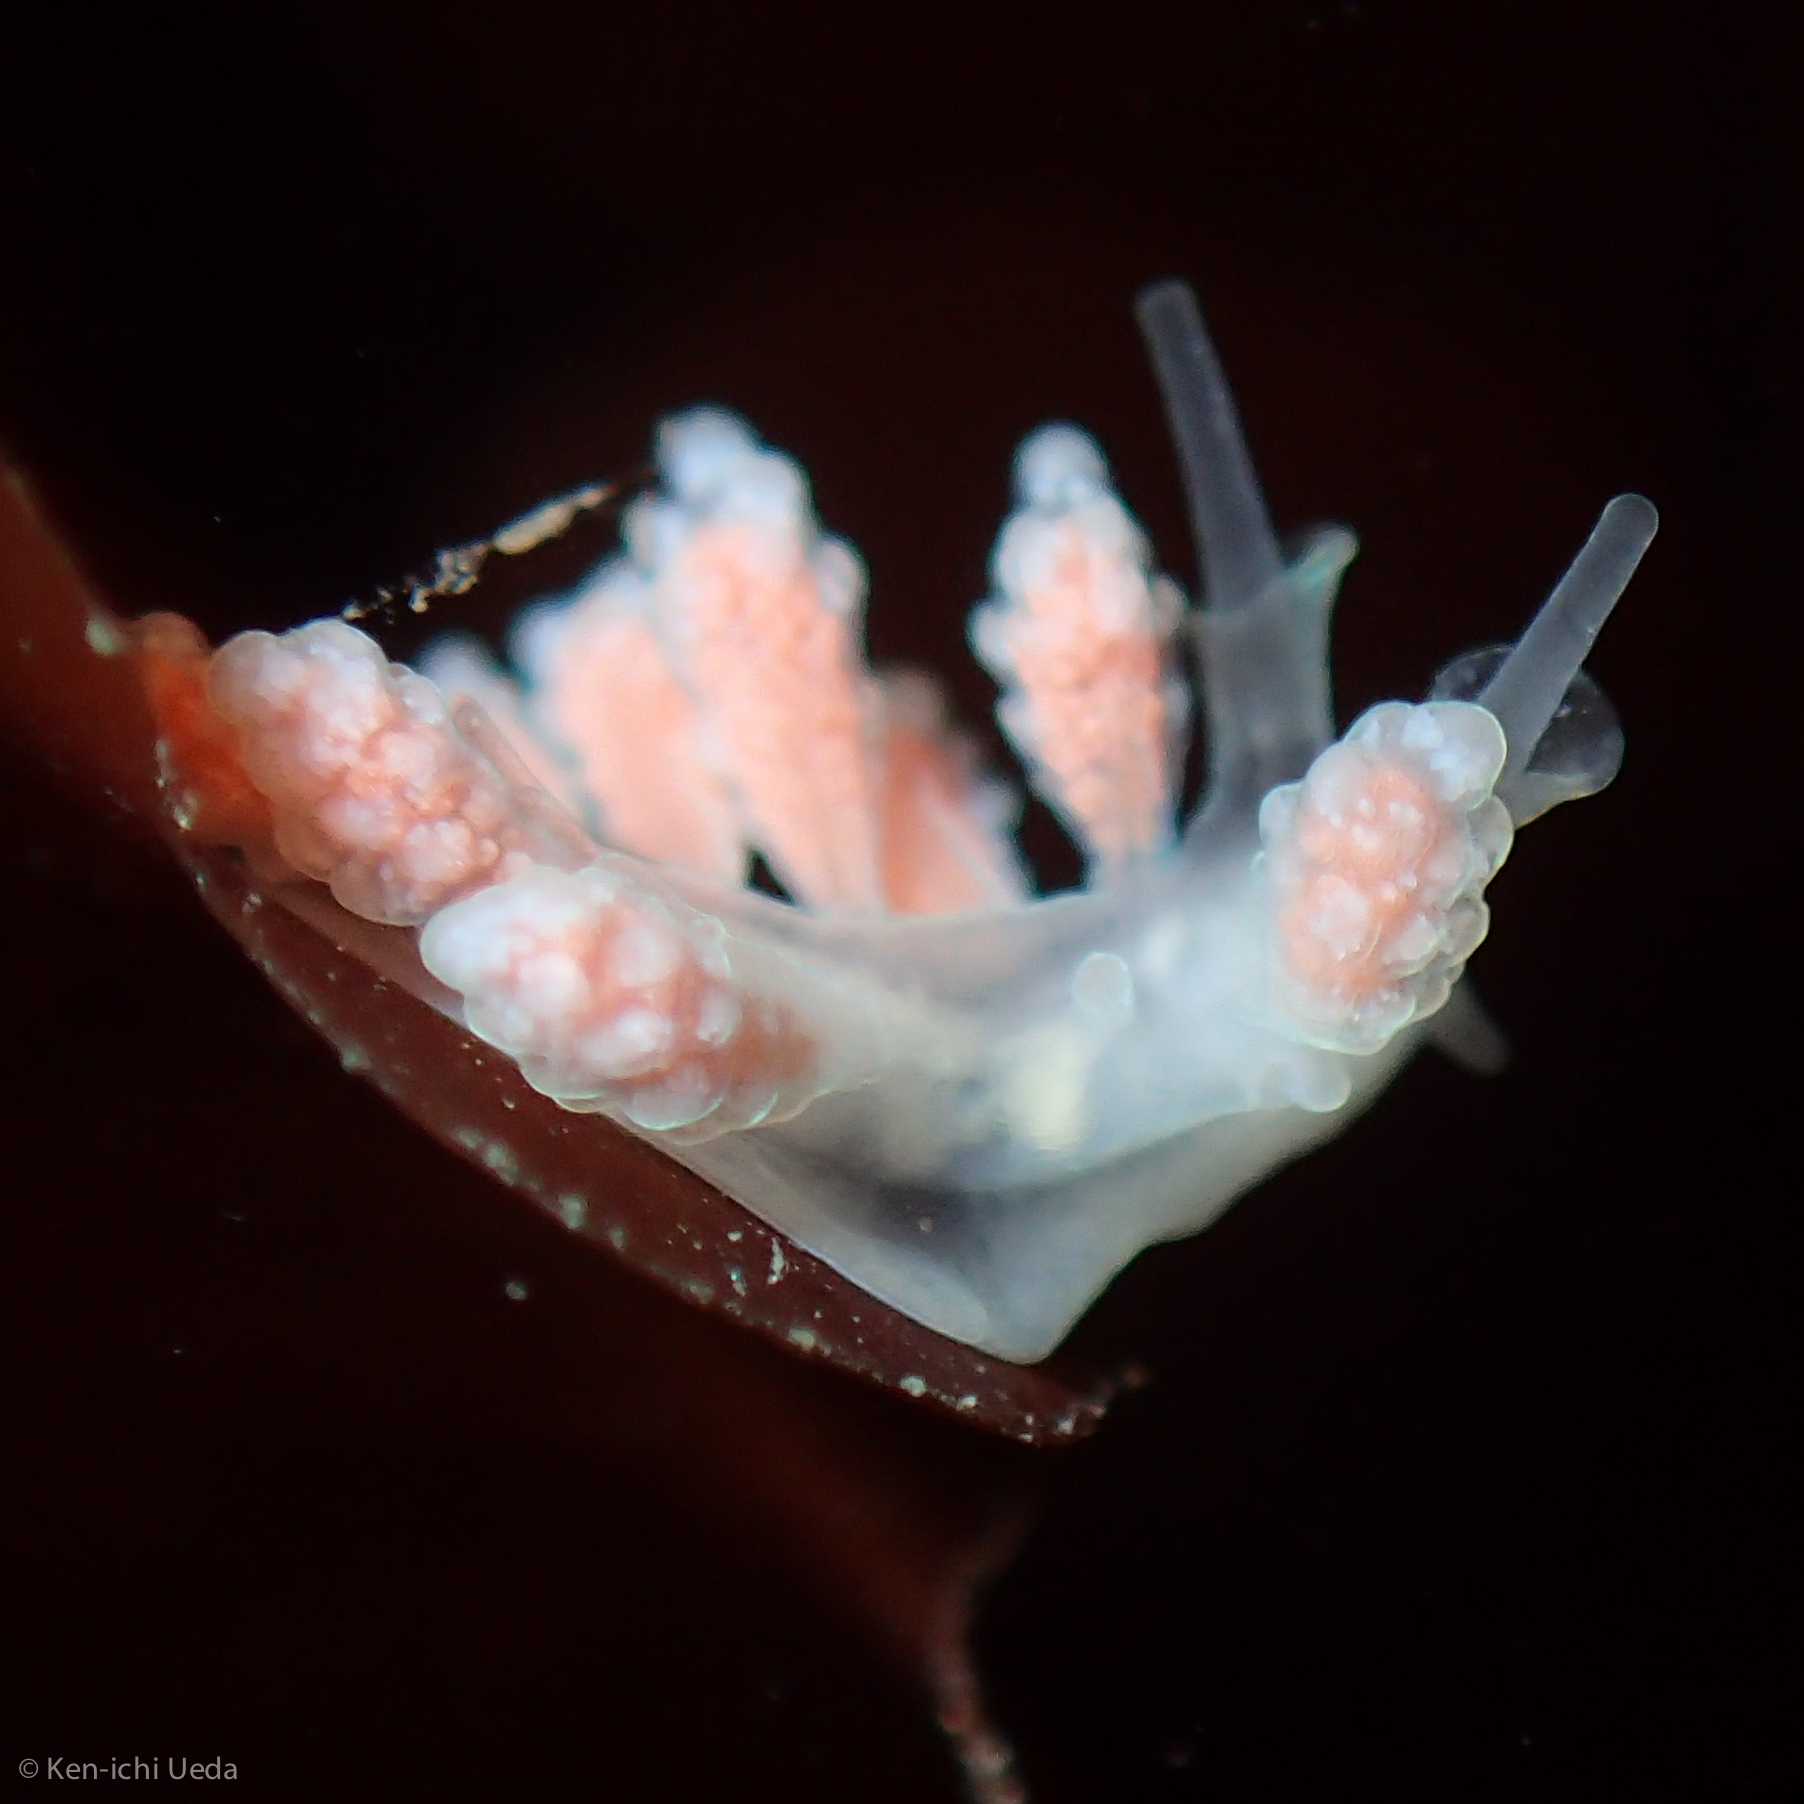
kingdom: Animalia
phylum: Mollusca
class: Gastropoda
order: Nudibranchia
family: Dotidae
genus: Doto
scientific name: Doto amyra
